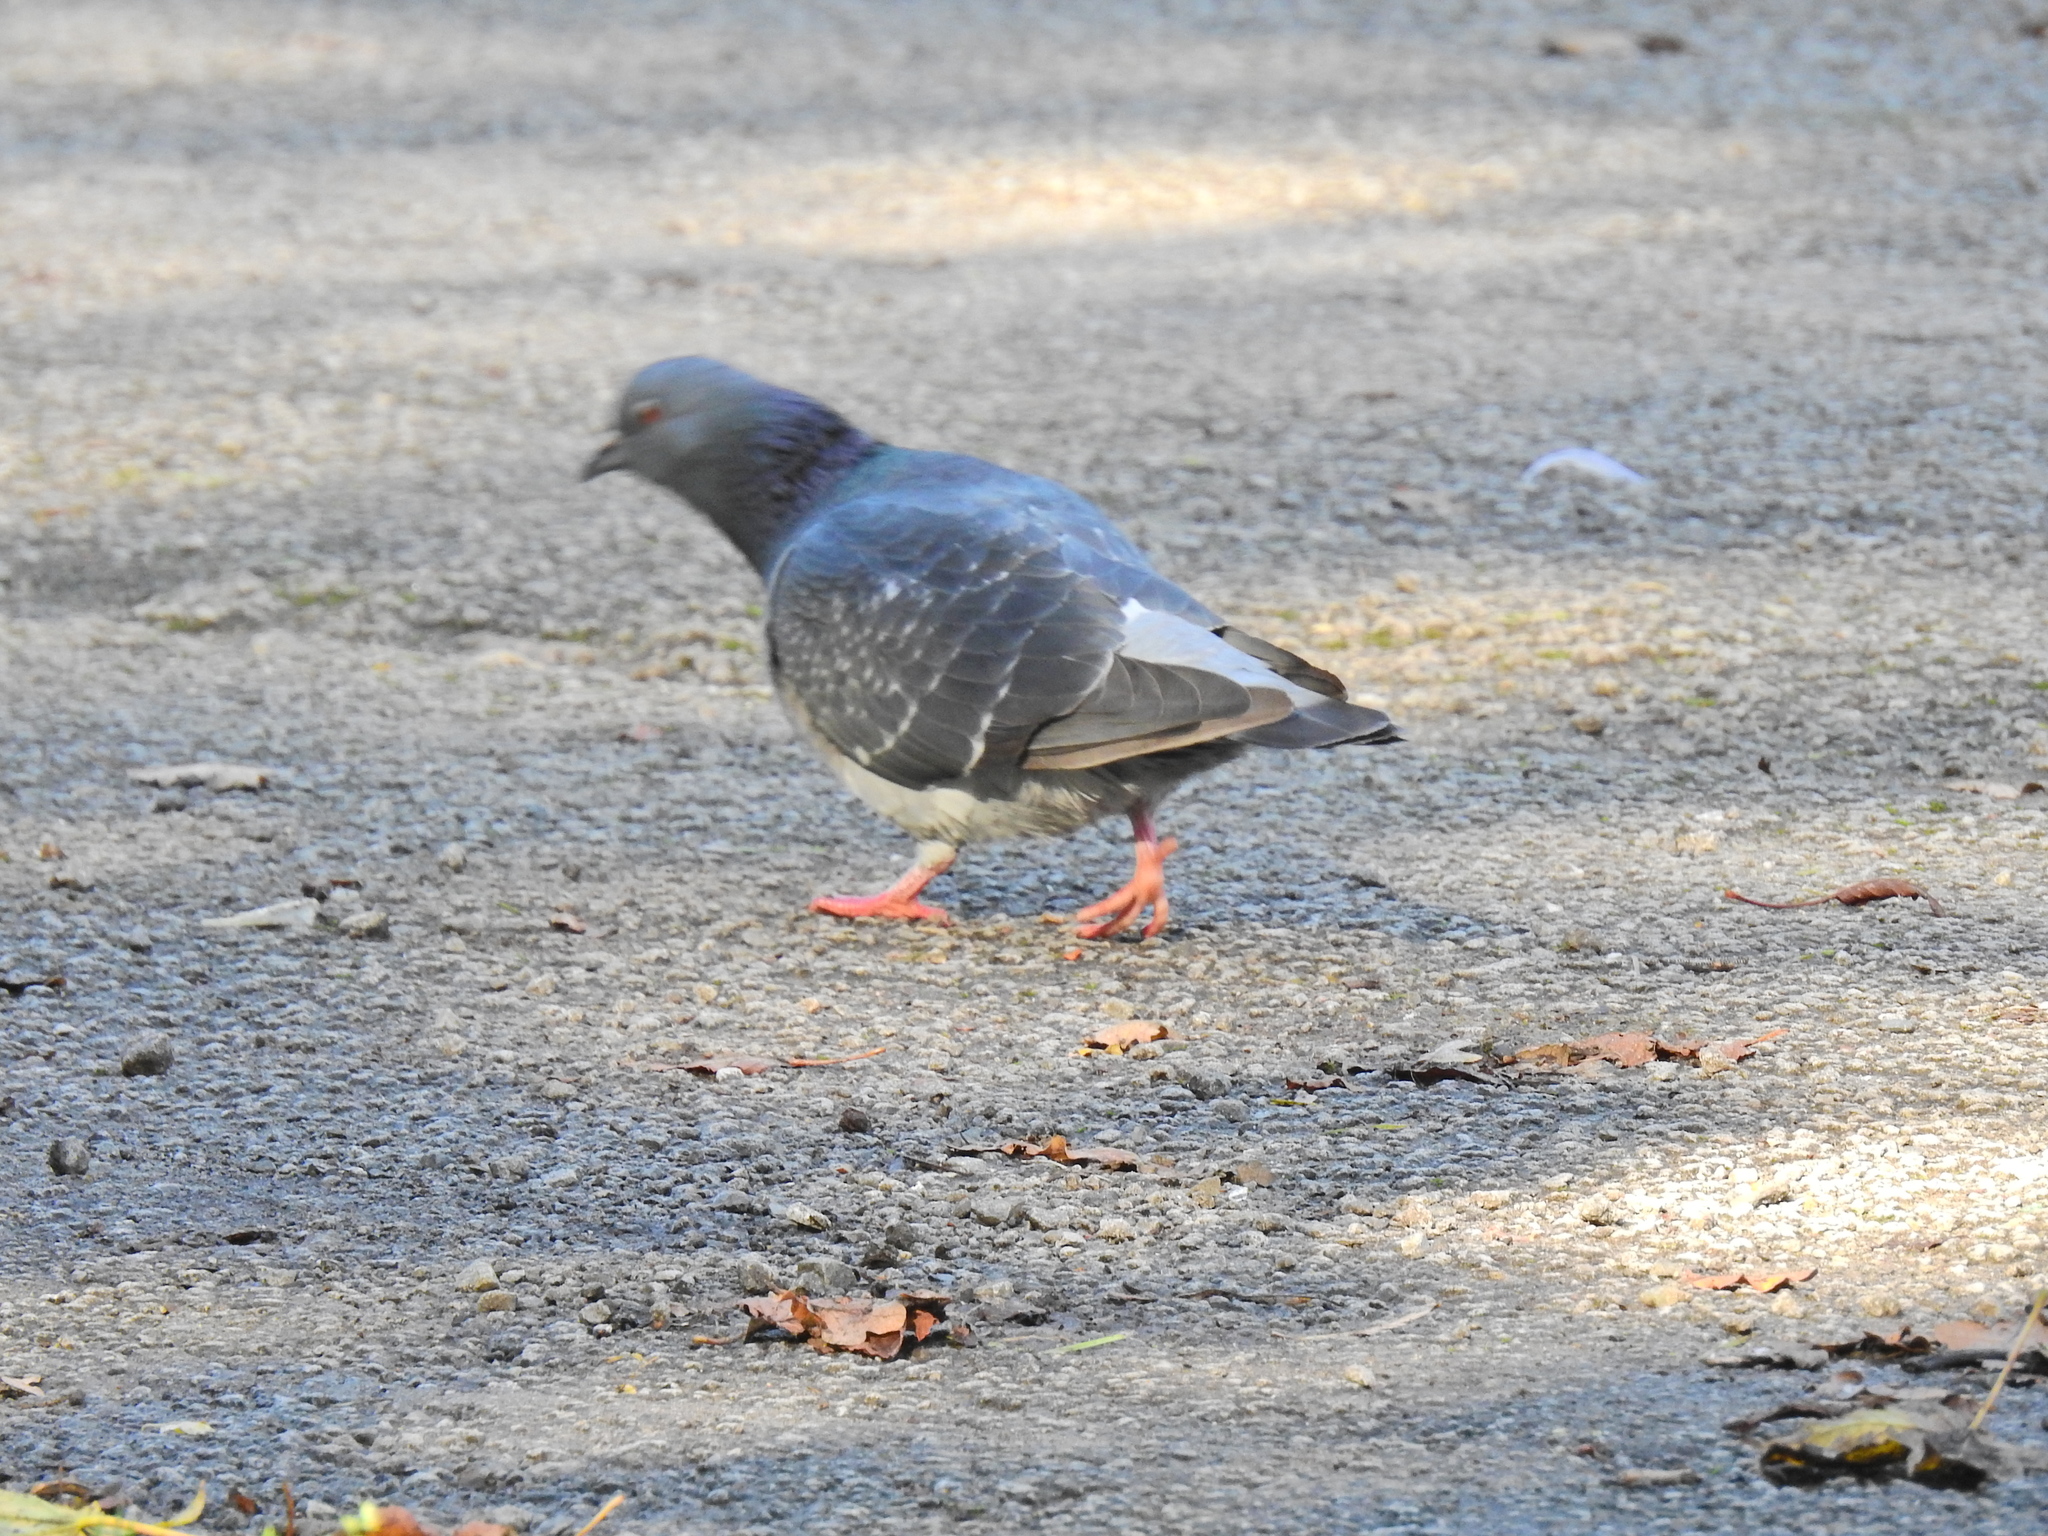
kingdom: Animalia
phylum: Chordata
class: Aves
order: Columbiformes
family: Columbidae
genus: Columba
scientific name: Columba livia
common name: Rock pigeon
